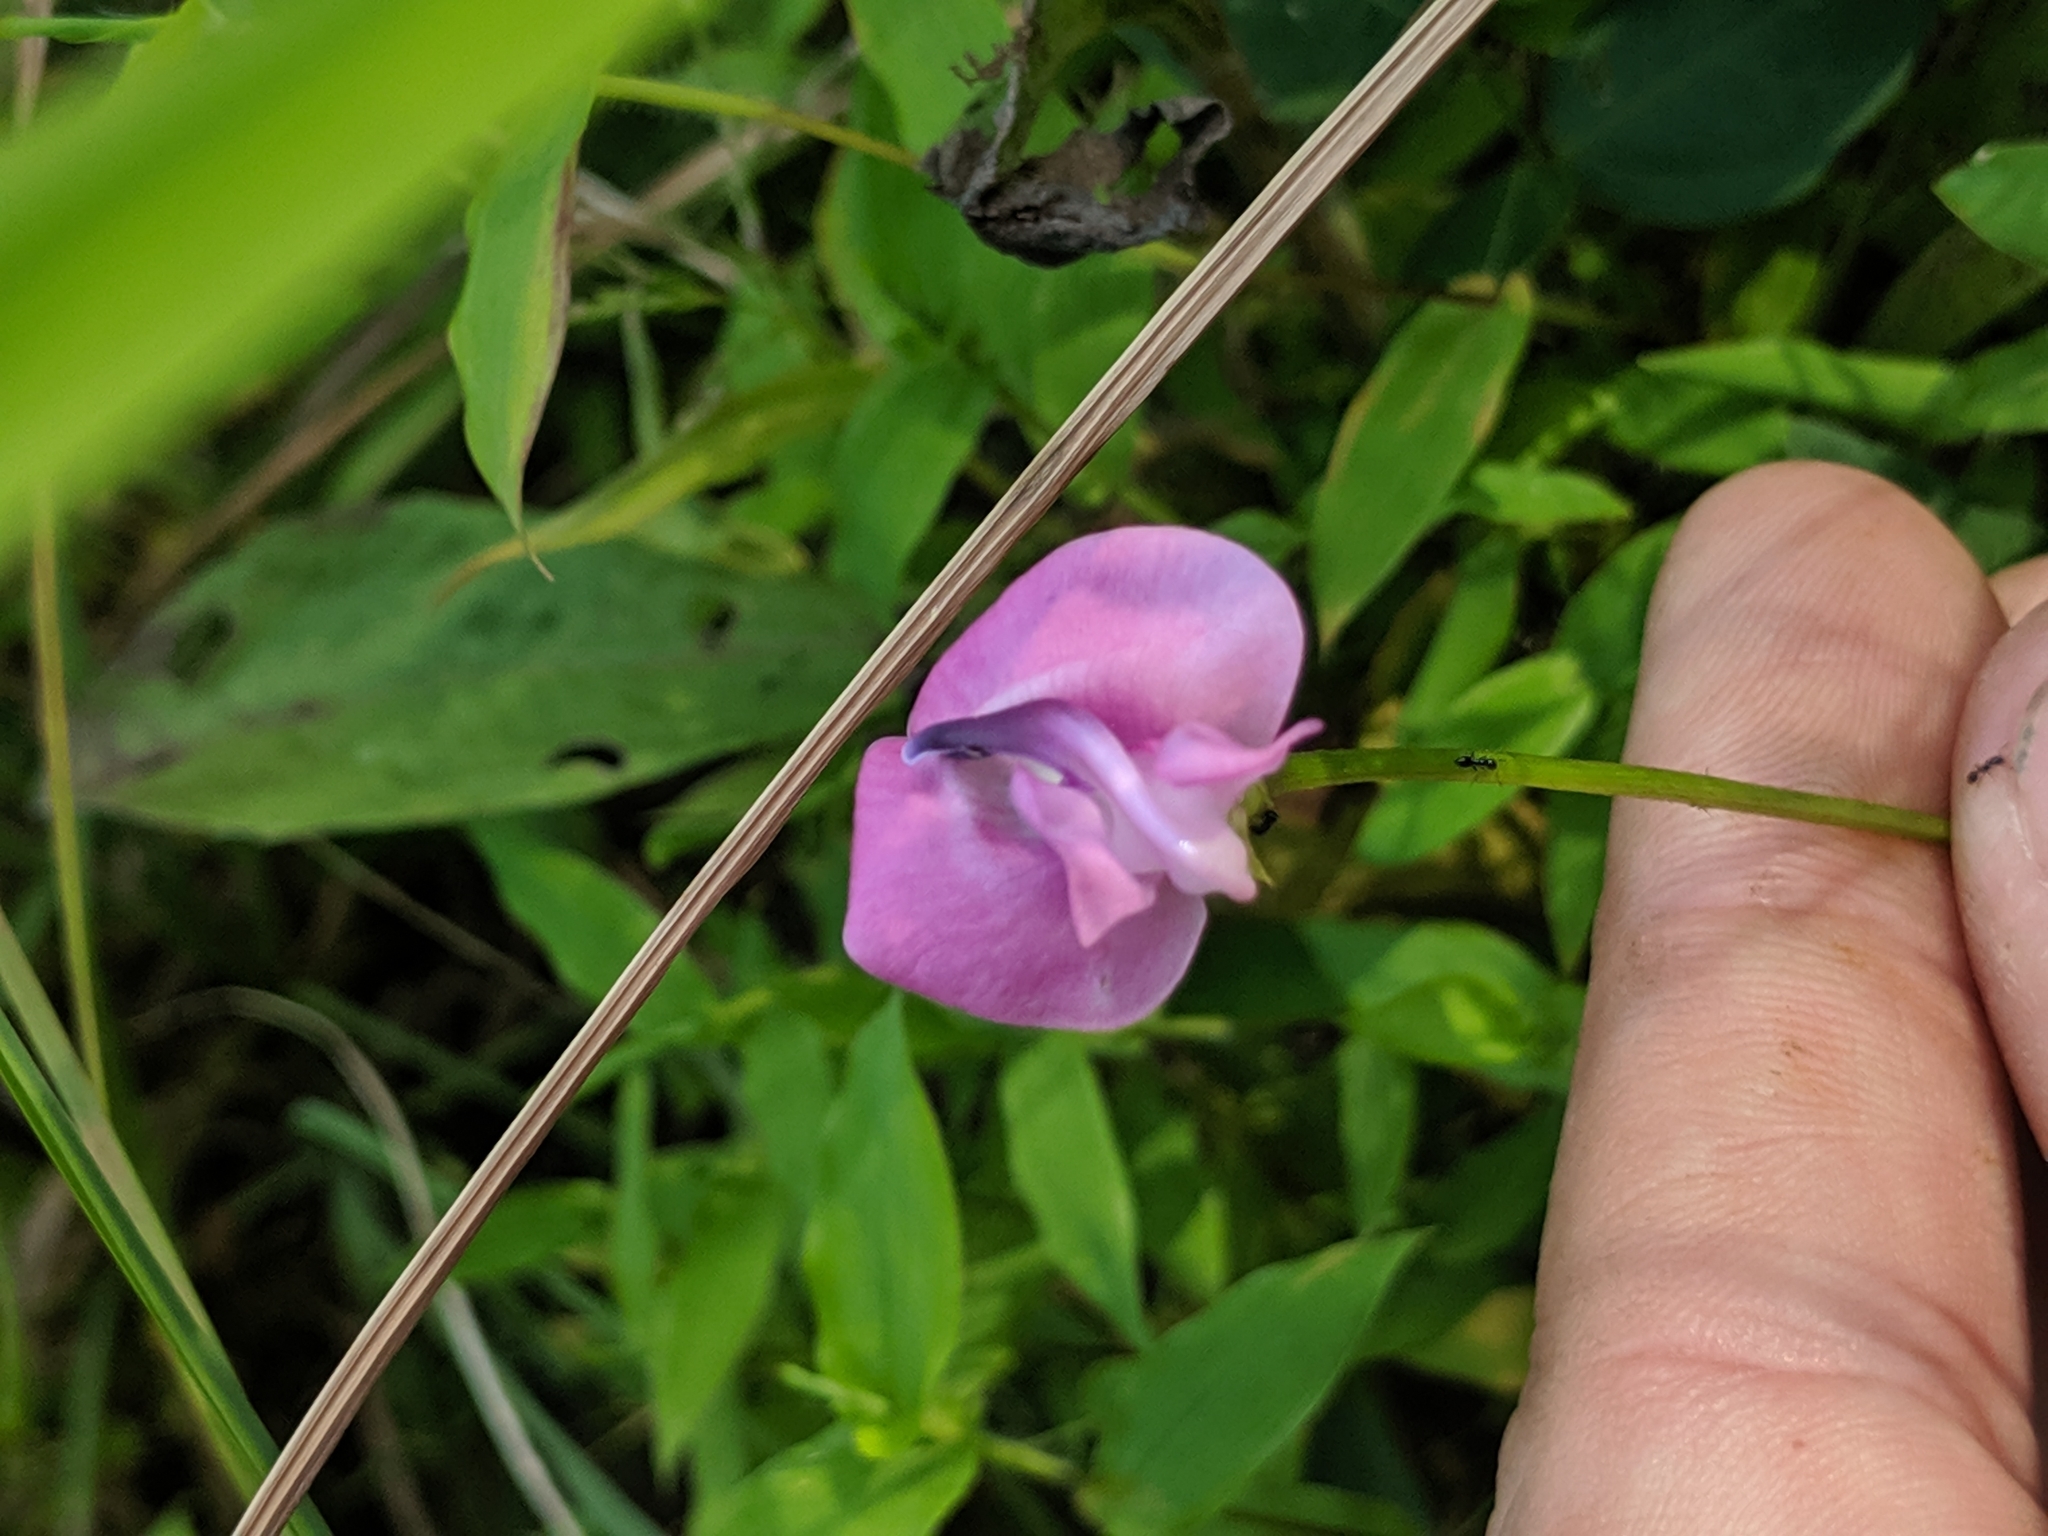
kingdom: Plantae
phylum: Tracheophyta
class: Magnoliopsida
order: Fabales
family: Fabaceae
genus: Strophostyles
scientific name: Strophostyles umbellata
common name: Perennial wild bean
